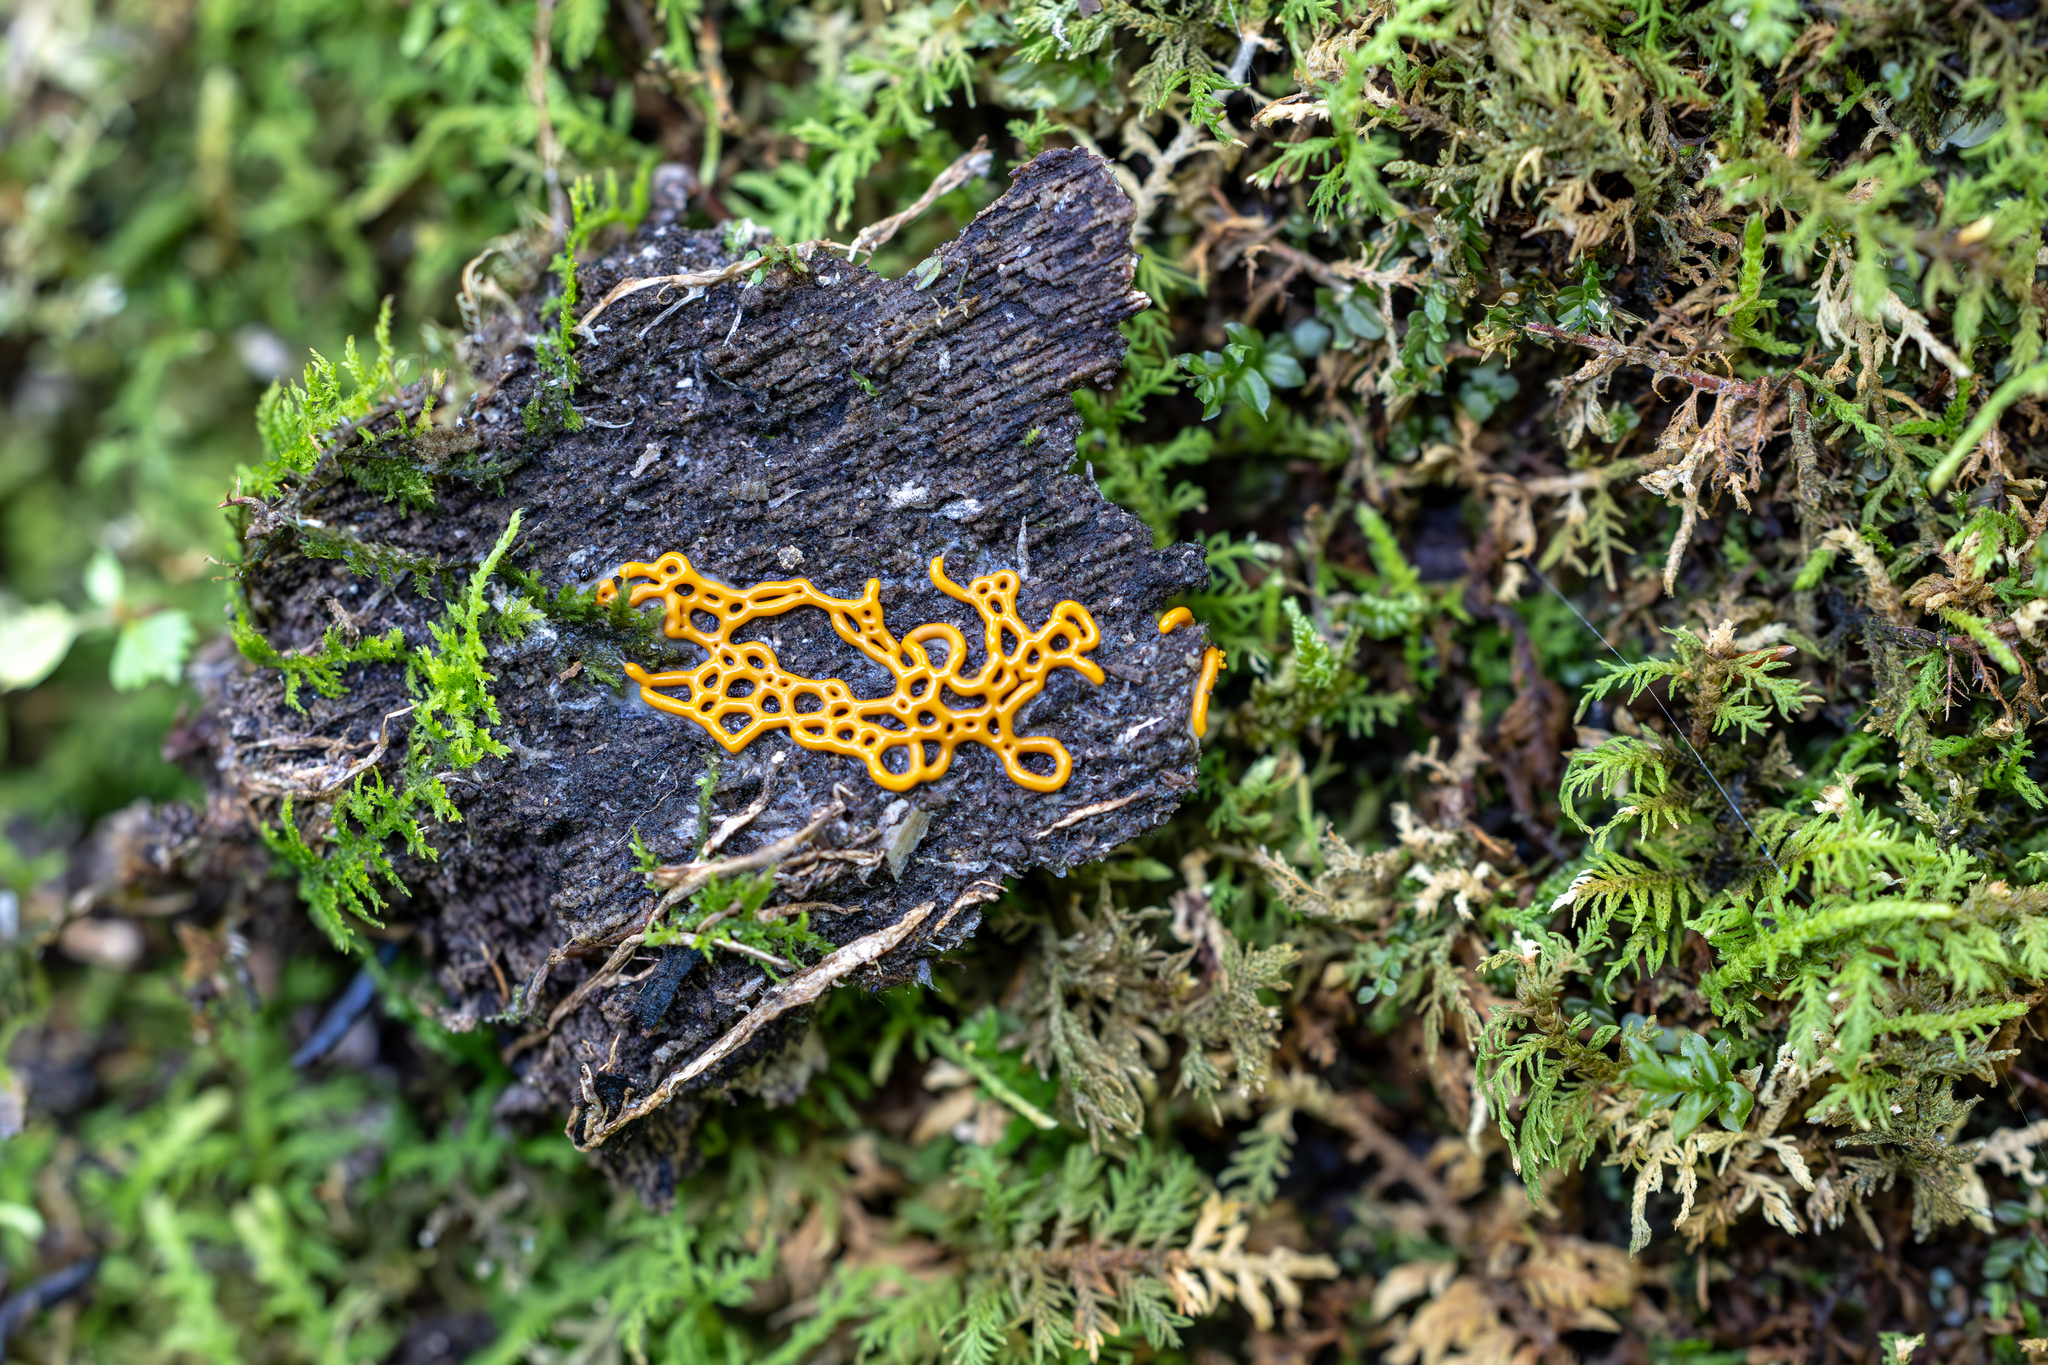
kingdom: Protozoa
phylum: Mycetozoa
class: Myxomycetes
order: Trichiales
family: Arcyriaceae
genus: Hemitrichia
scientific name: Hemitrichia serpula
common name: Pretzel slime mold
